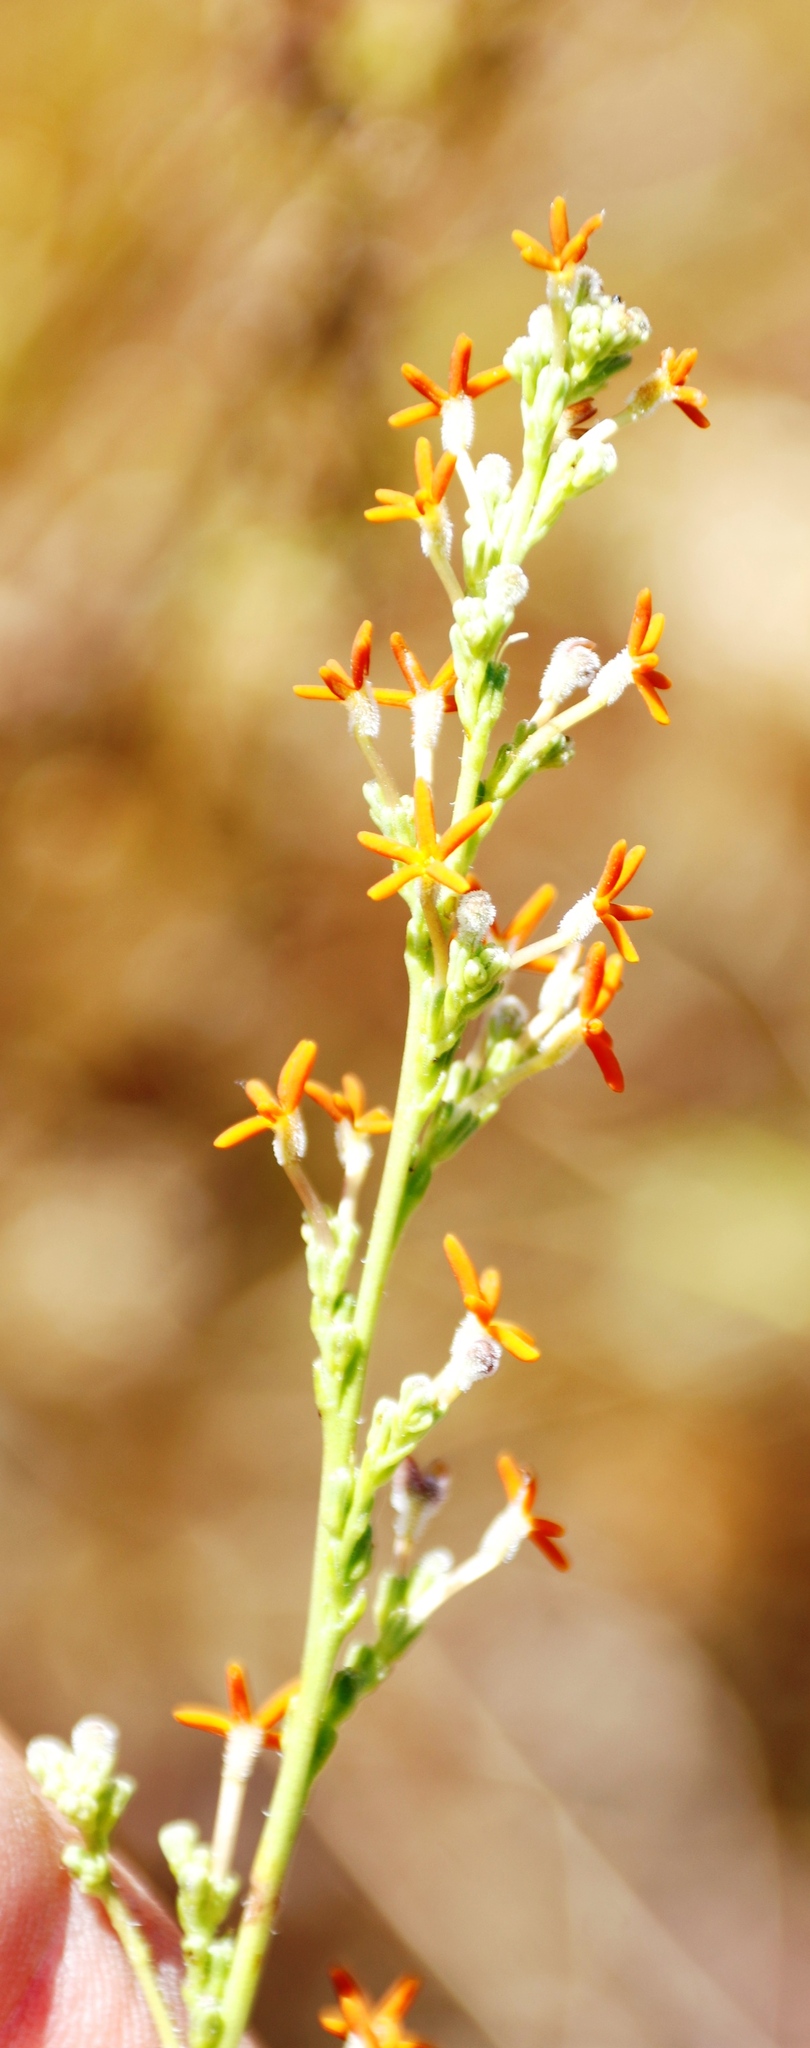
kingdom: Plantae
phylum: Tracheophyta
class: Magnoliopsida
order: Lamiales
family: Scrophulariaceae
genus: Manulea
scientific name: Manulea rubra
